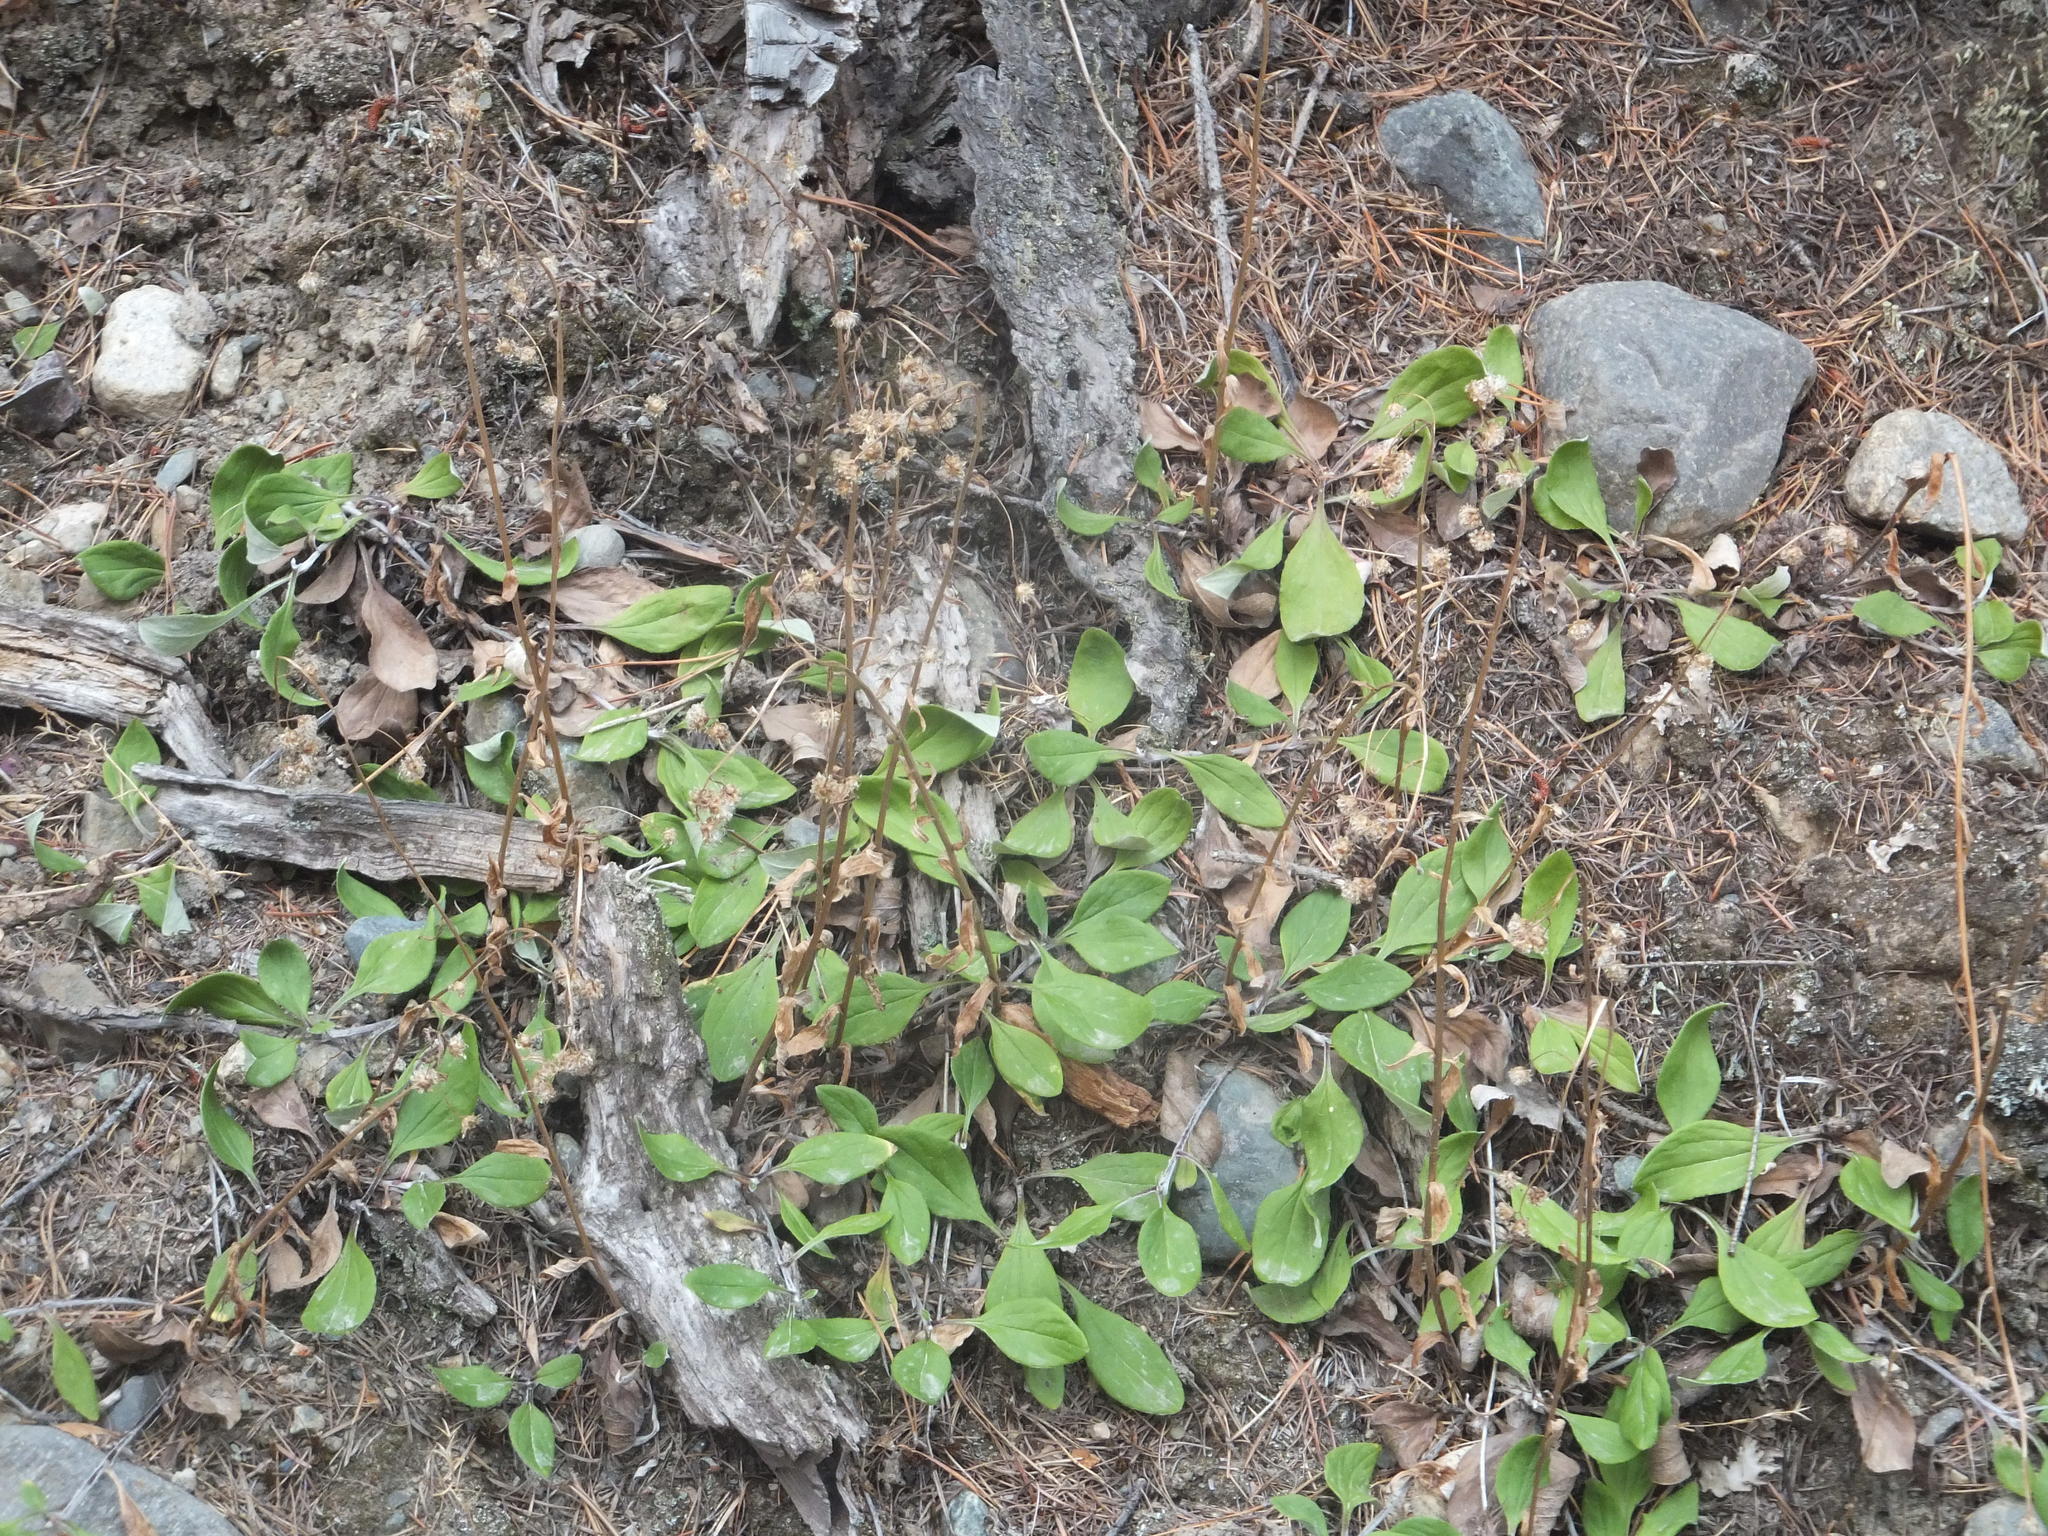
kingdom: Plantae
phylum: Tracheophyta
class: Magnoliopsida
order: Asterales
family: Asteraceae
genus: Antennaria
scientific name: Antennaria racemosa
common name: Racemose pussytoes
